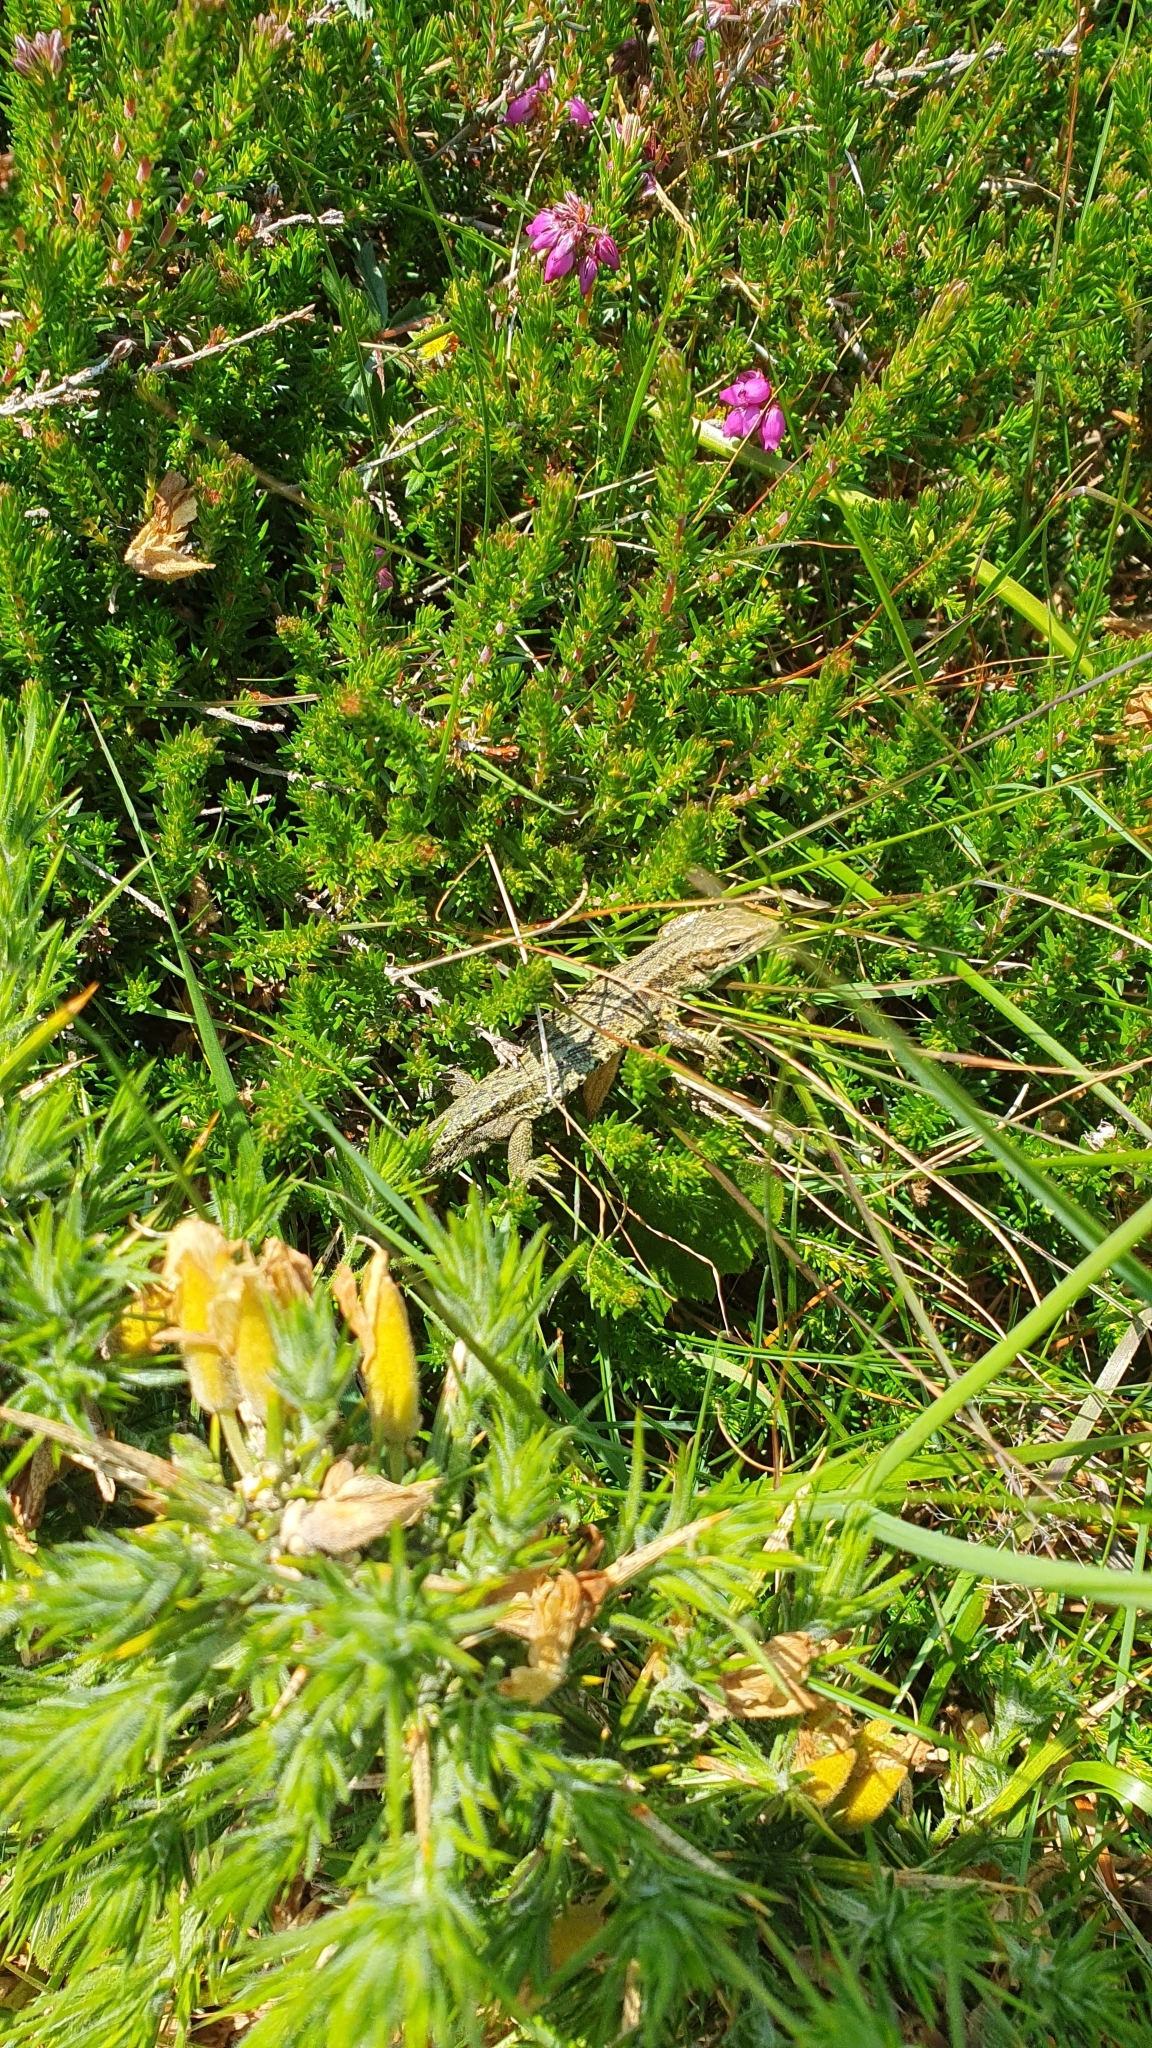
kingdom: Animalia
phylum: Chordata
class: Squamata
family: Lacertidae
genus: Zootoca
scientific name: Zootoca vivipara
